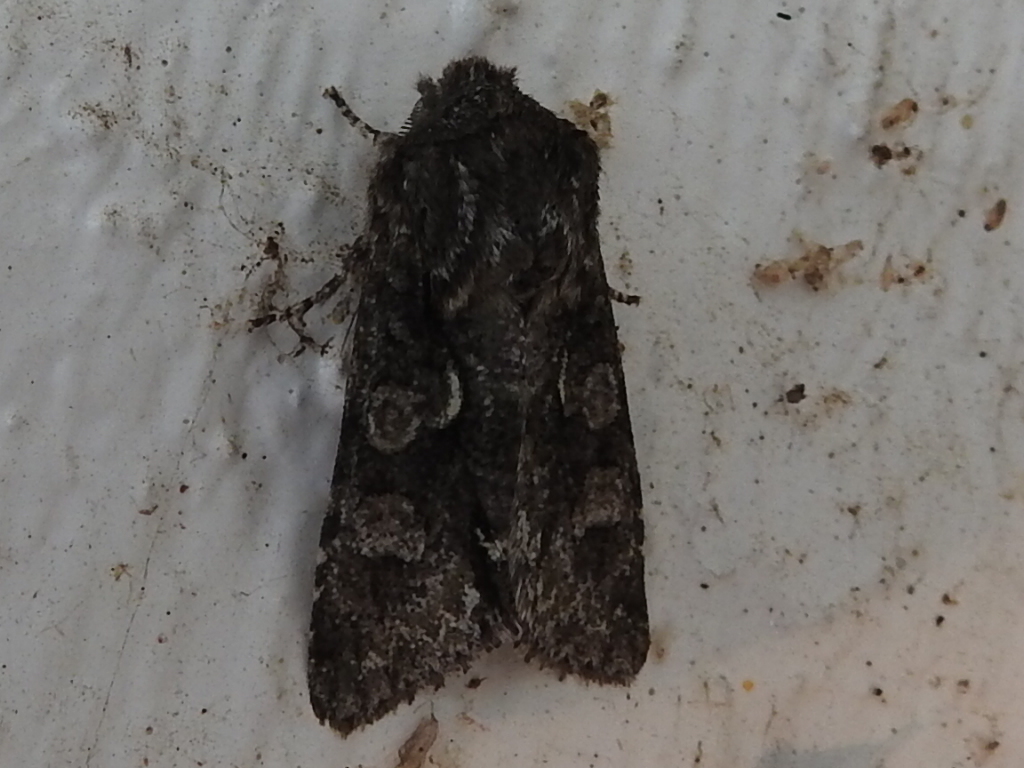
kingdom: Animalia
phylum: Arthropoda
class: Insecta
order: Lepidoptera
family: Noctuidae
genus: Psaphida
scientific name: Psaphida resumens
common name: Figure-eight sallow
